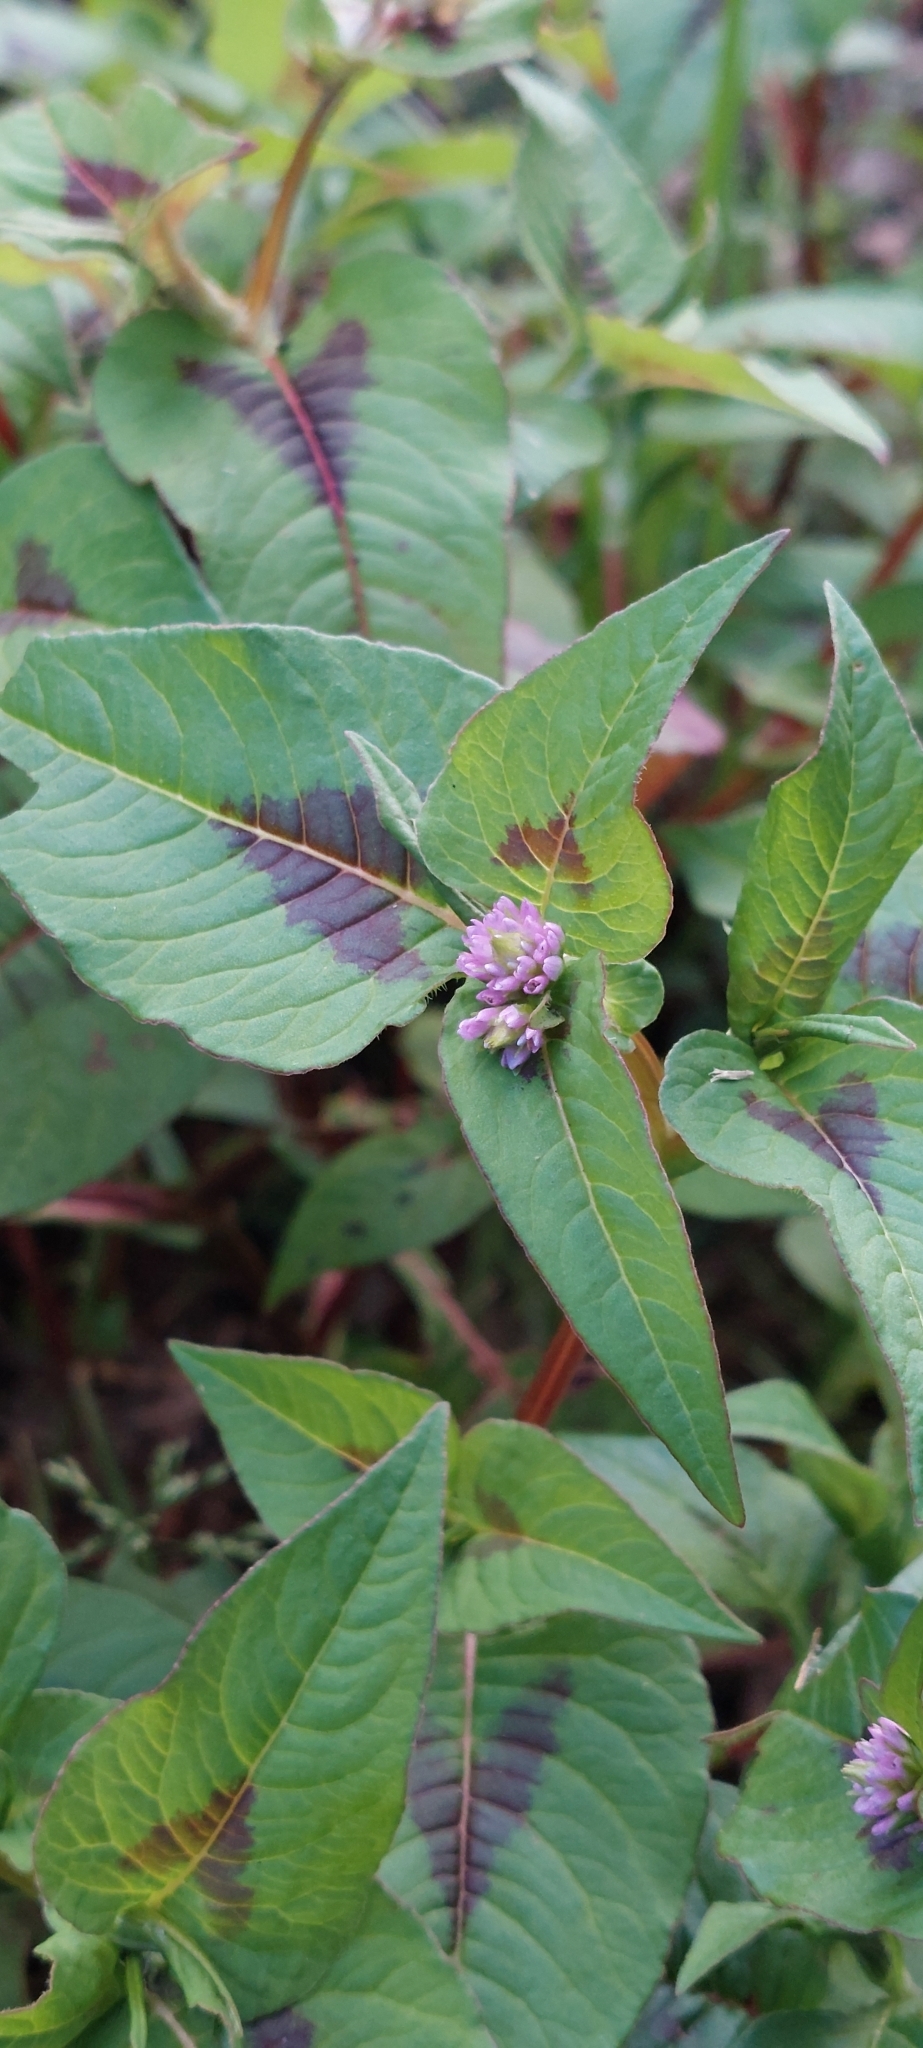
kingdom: Plantae
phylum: Tracheophyta
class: Magnoliopsida
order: Caryophyllales
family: Polygonaceae
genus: Persicaria
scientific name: Persicaria nepalensis
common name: Nepal persicaria
